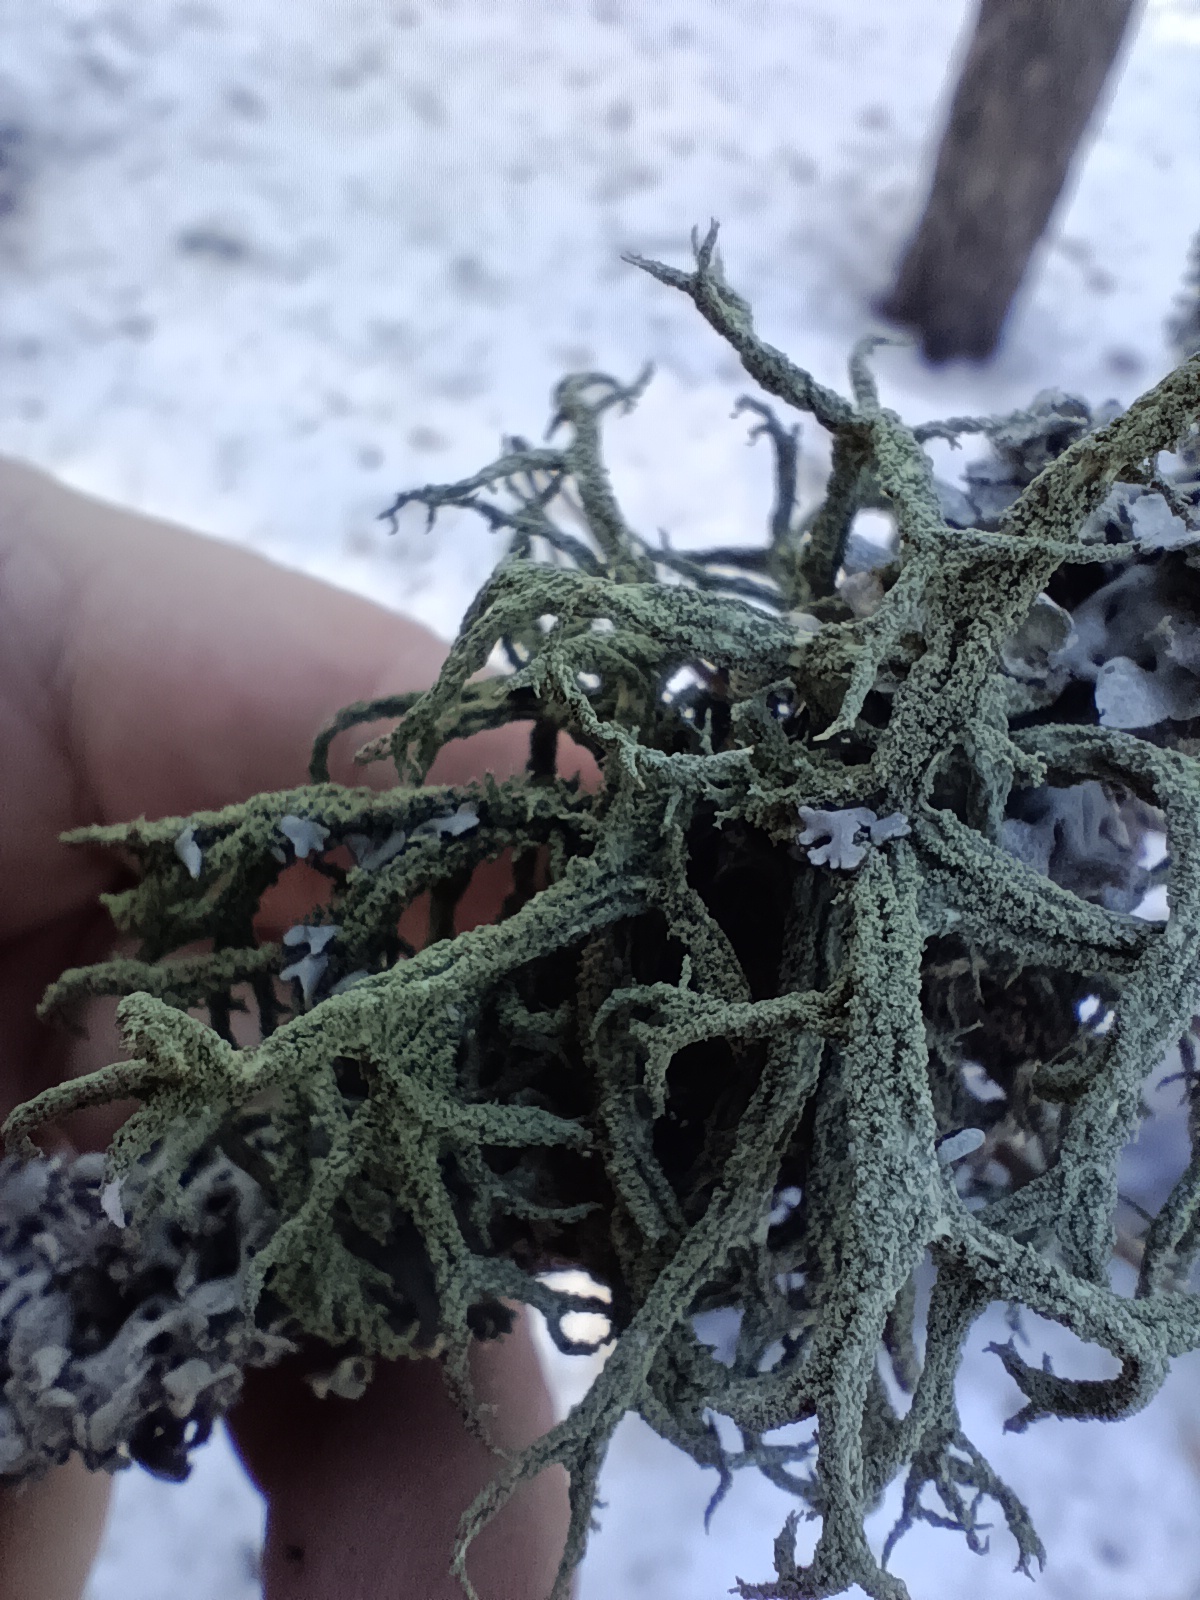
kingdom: Fungi
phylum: Ascomycota
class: Lecanoromycetes
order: Lecanorales
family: Parmeliaceae
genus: Evernia
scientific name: Evernia mesomorpha
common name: Boreal oak moss lichen
